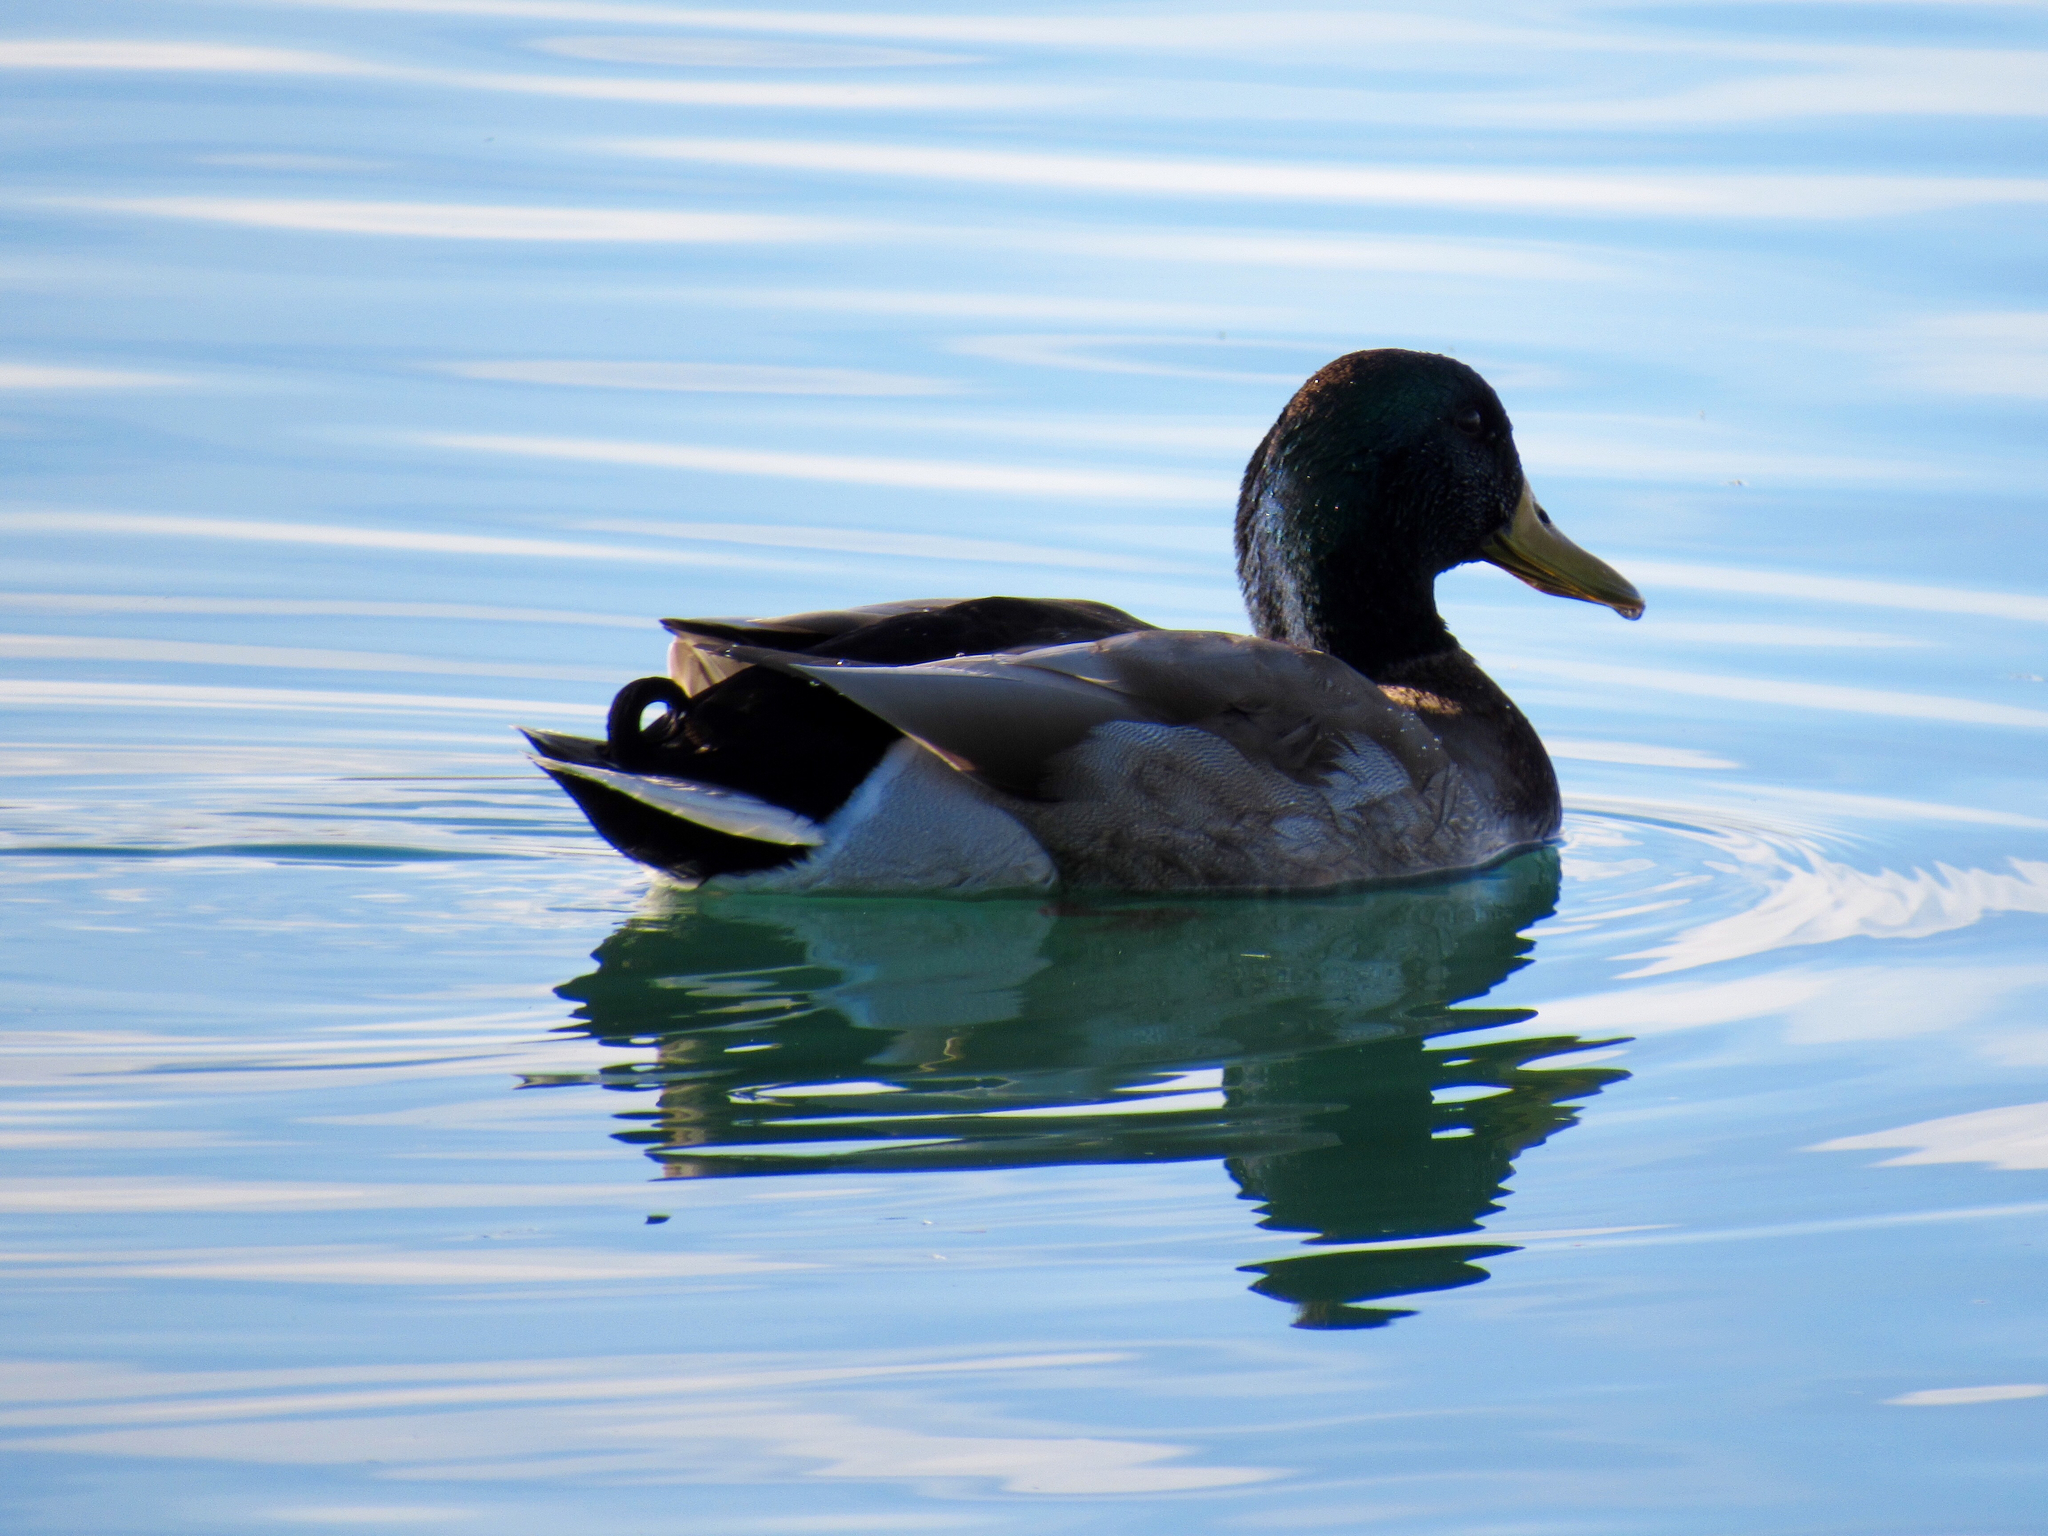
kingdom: Animalia
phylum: Chordata
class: Aves
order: Anseriformes
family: Anatidae
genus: Anas
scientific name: Anas platyrhynchos
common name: Mallard
